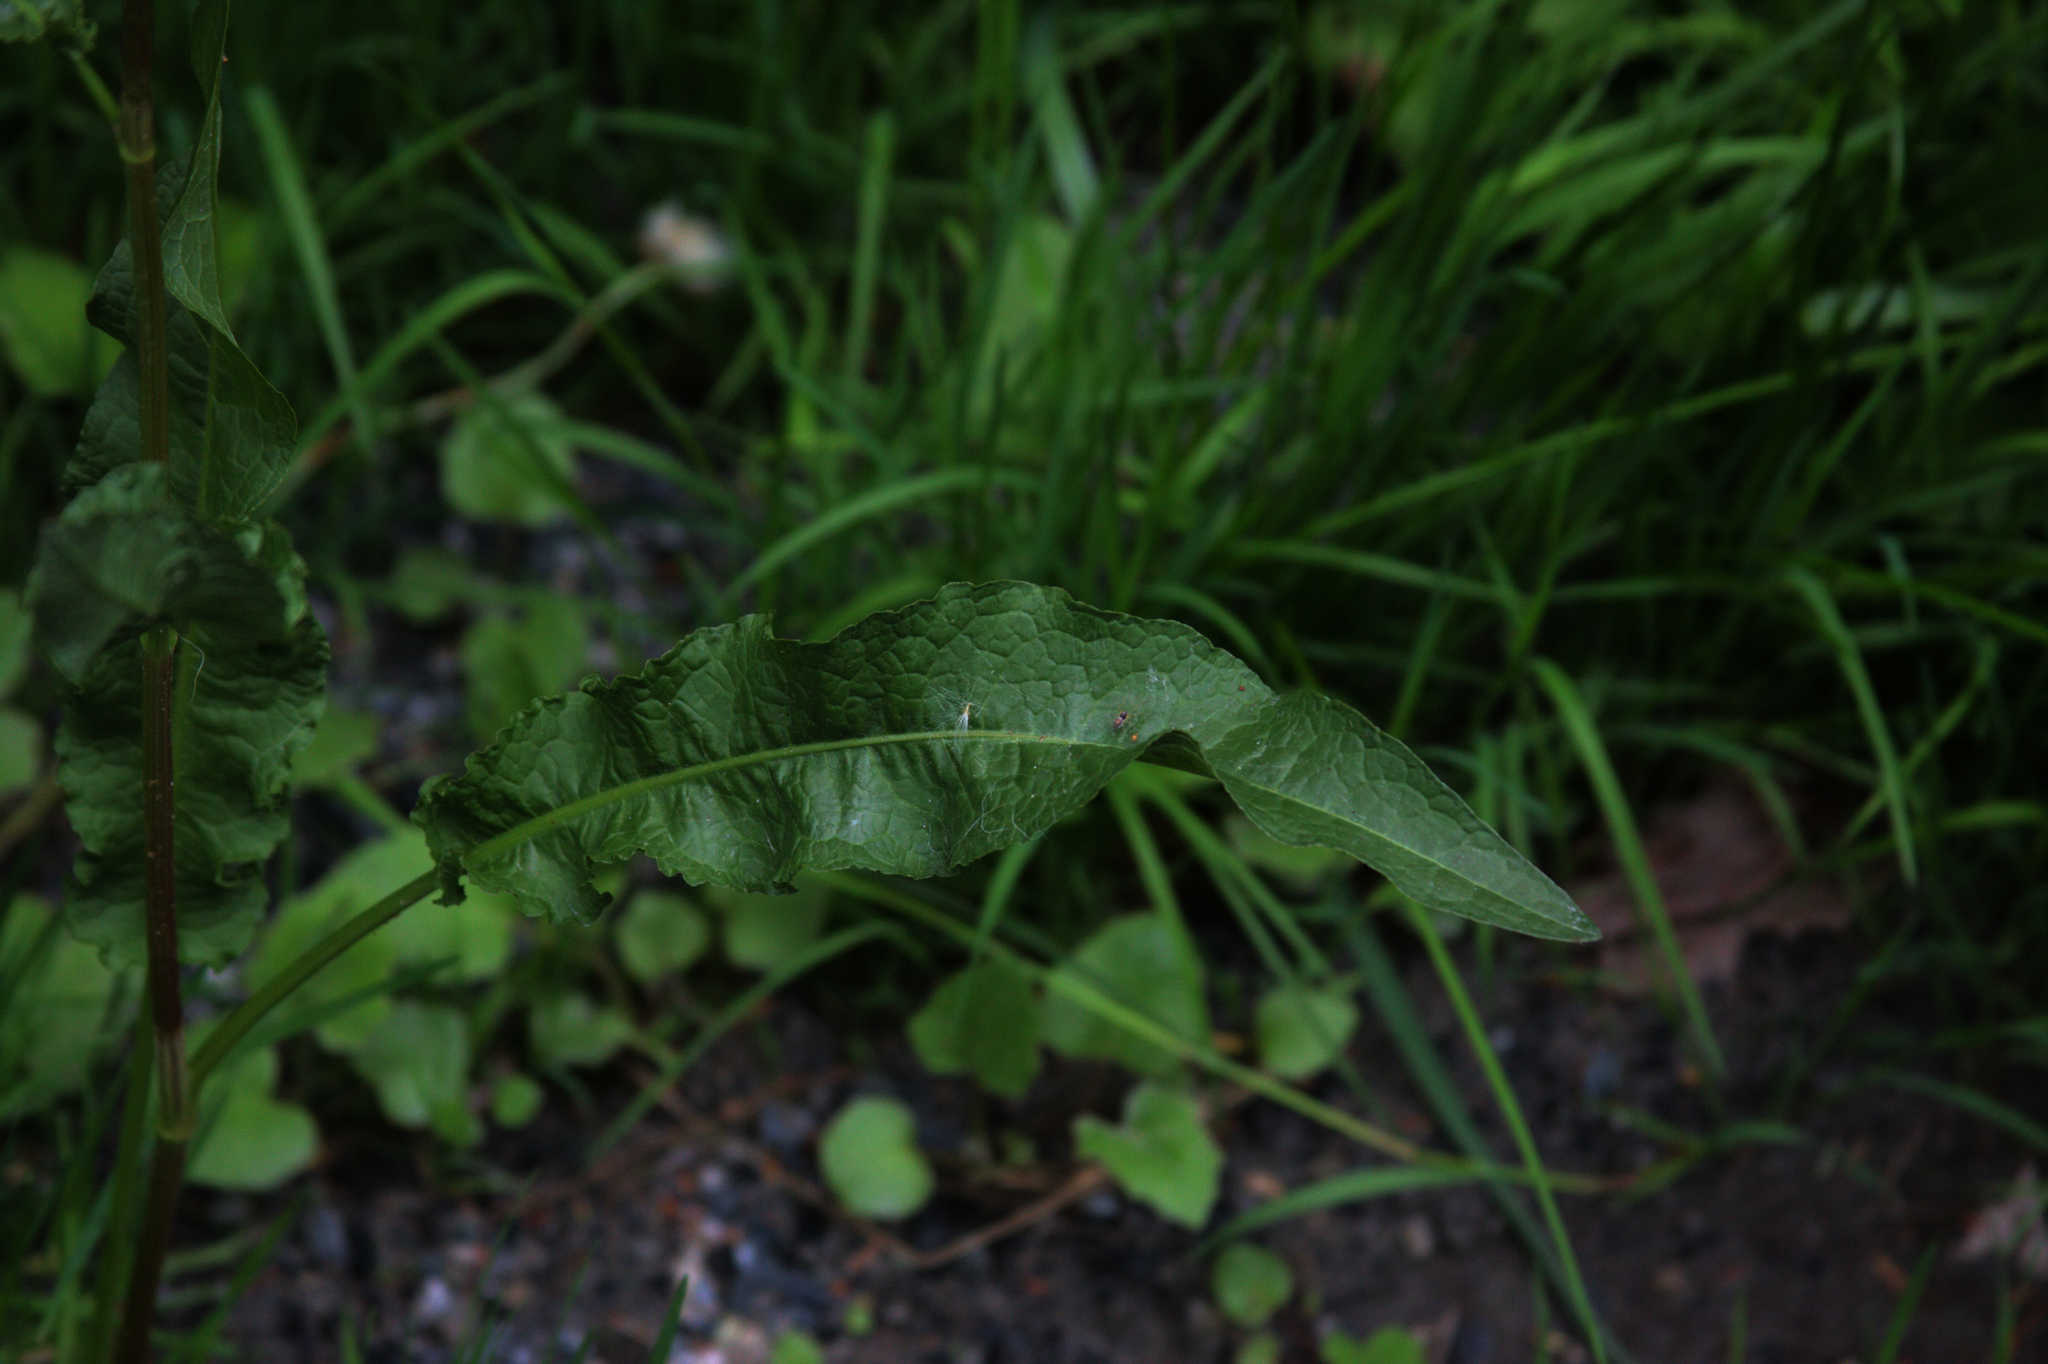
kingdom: Plantae
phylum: Tracheophyta
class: Magnoliopsida
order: Caryophyllales
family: Polygonaceae
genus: Rumex
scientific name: Rumex crispus
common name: Curled dock
